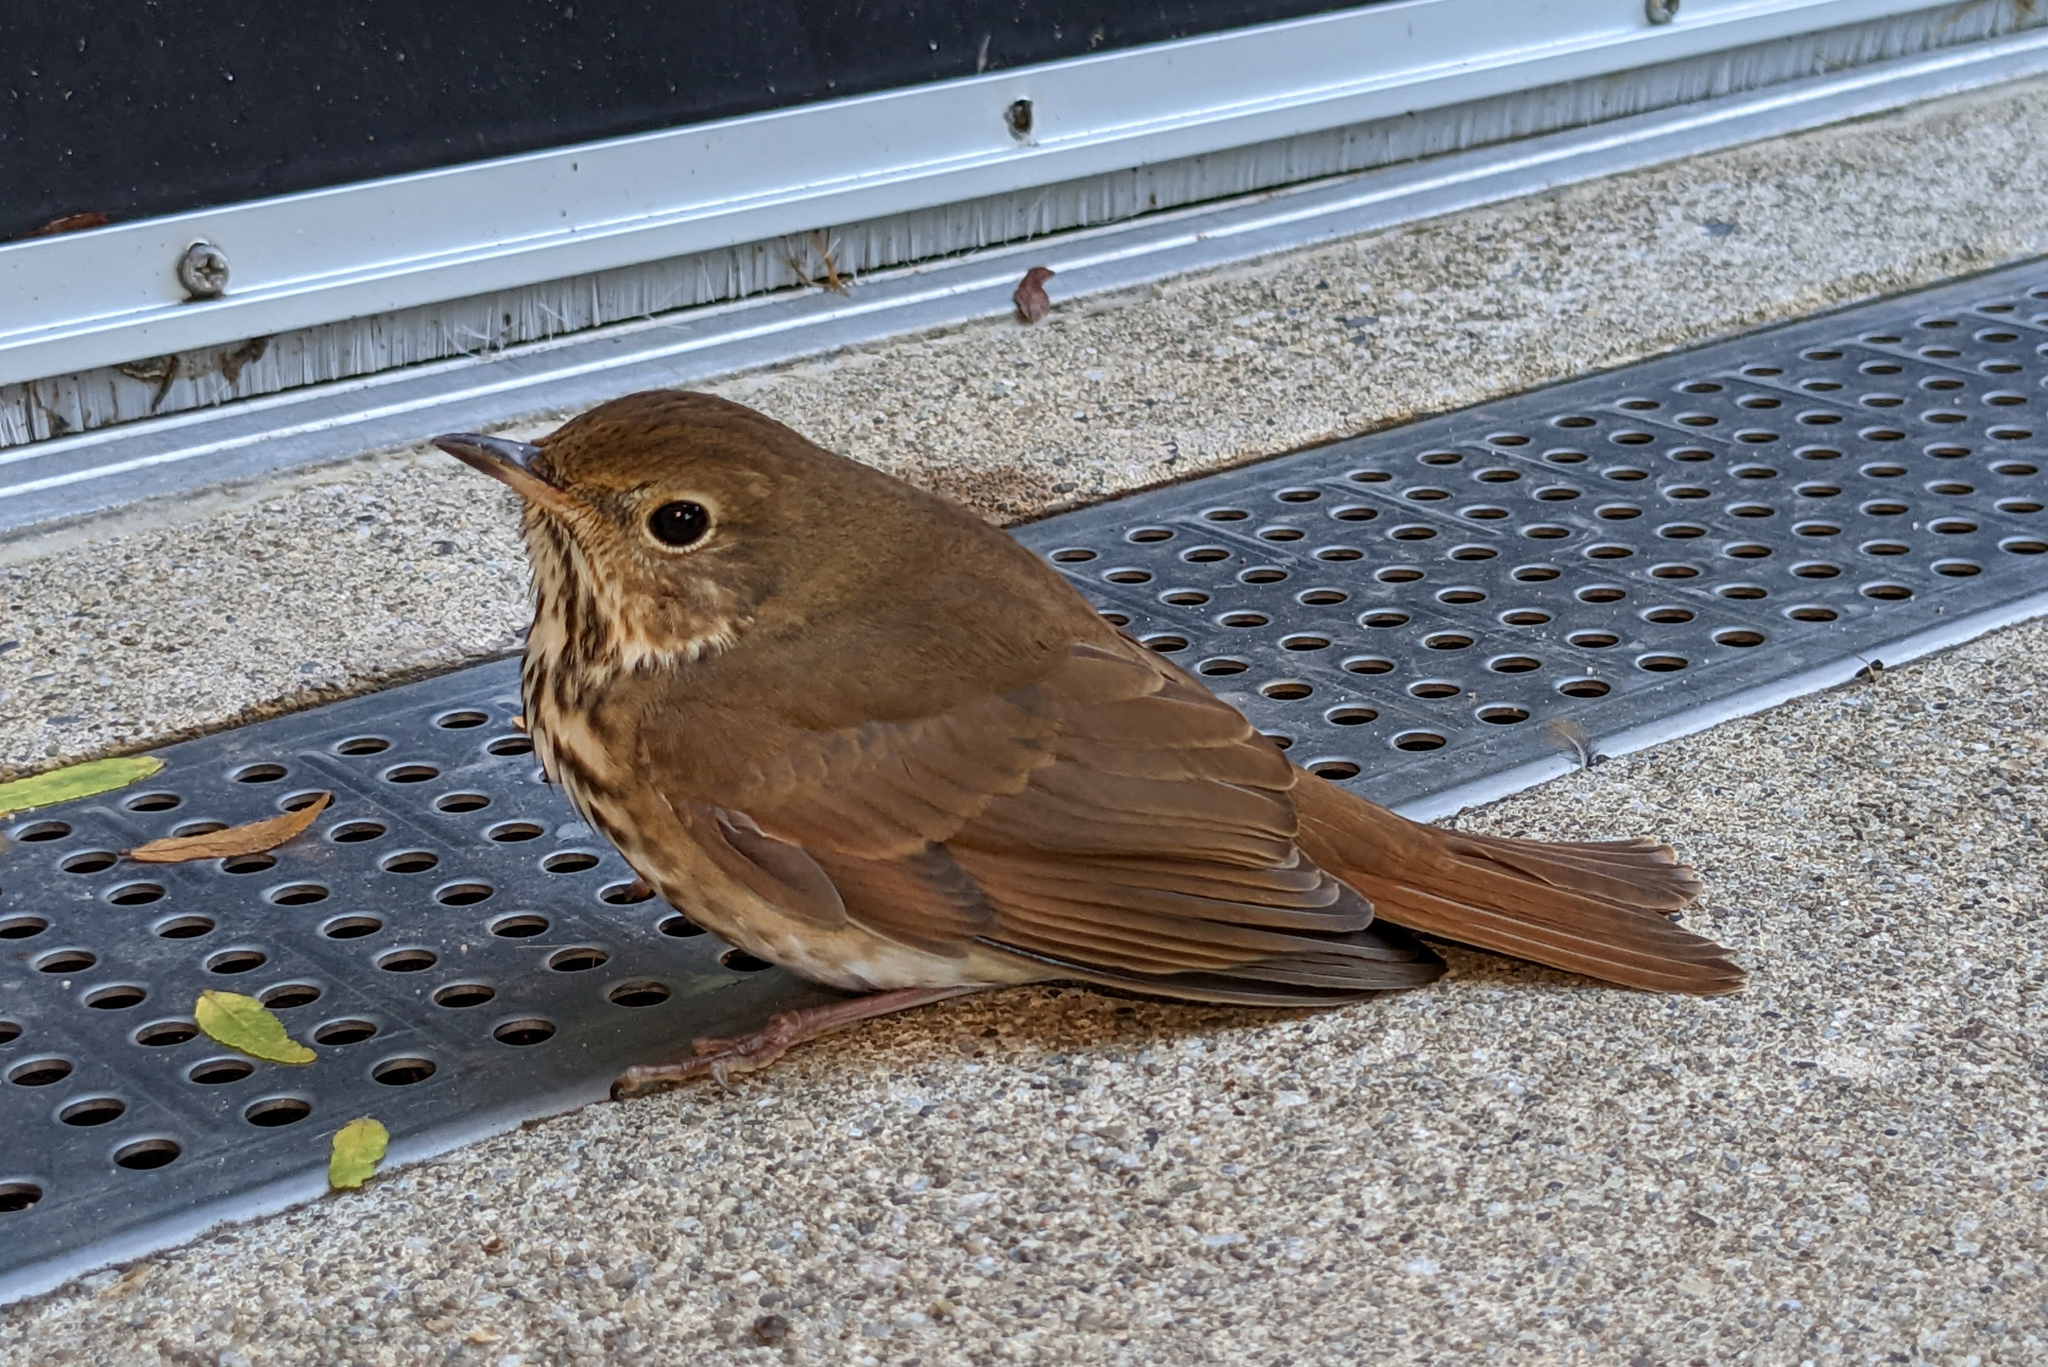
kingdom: Animalia
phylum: Chordata
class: Aves
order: Passeriformes
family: Turdidae
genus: Catharus
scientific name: Catharus guttatus
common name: Hermit thrush
